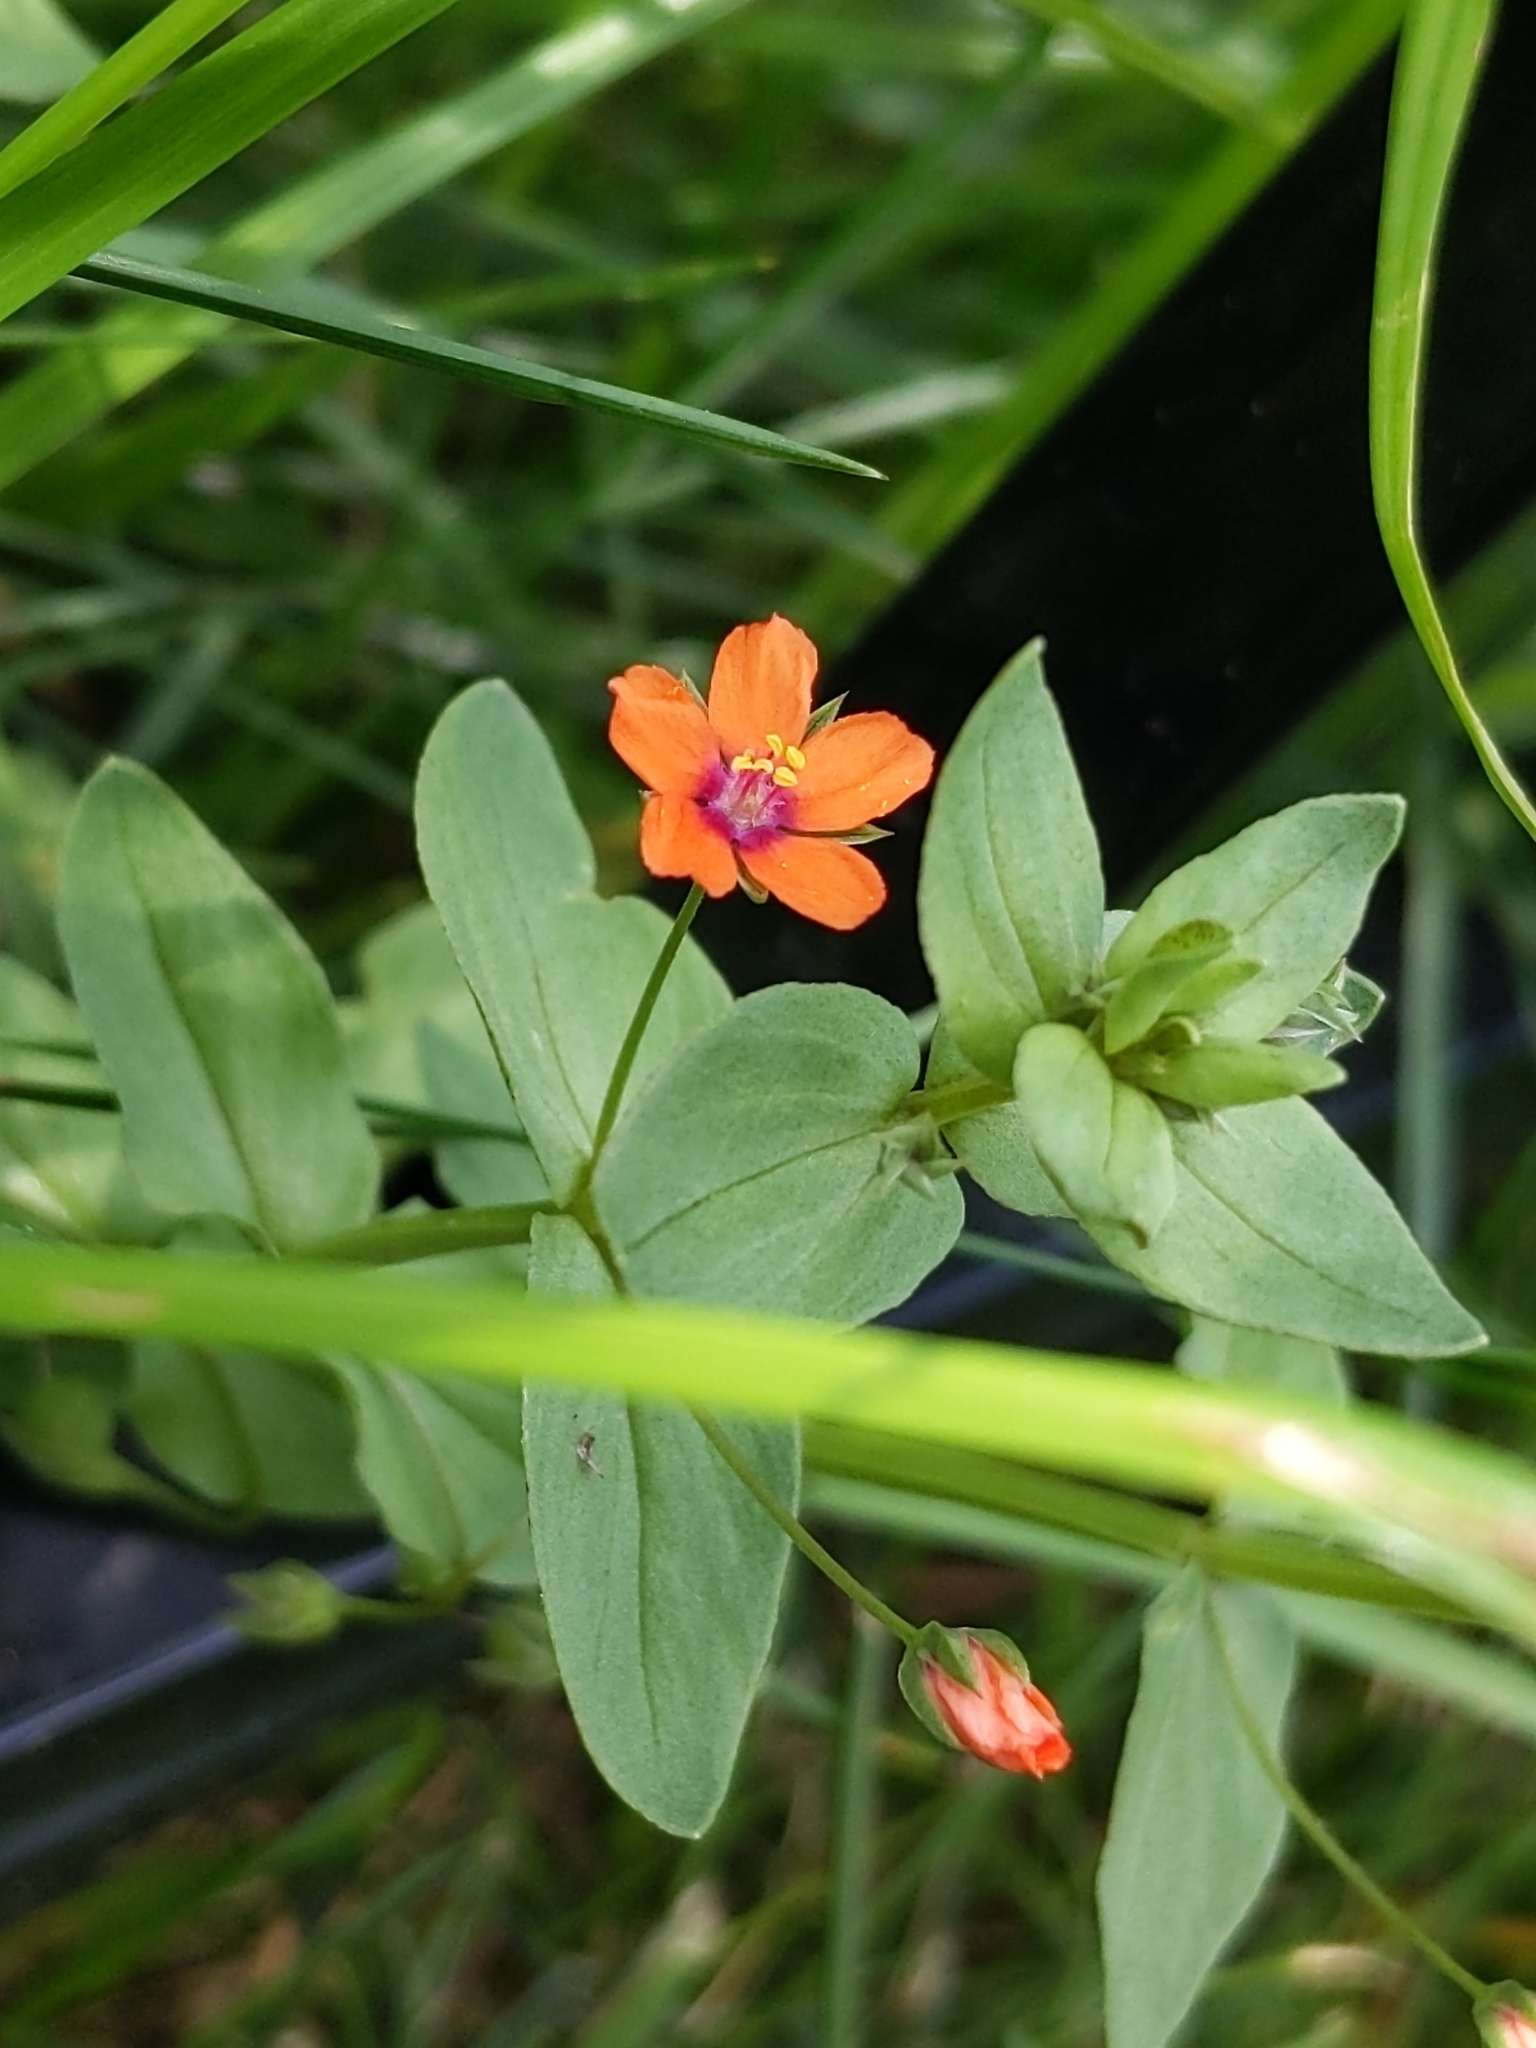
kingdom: Plantae
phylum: Tracheophyta
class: Magnoliopsida
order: Ericales
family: Primulaceae
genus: Lysimachia
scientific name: Lysimachia arvensis
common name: Scarlet pimpernel
